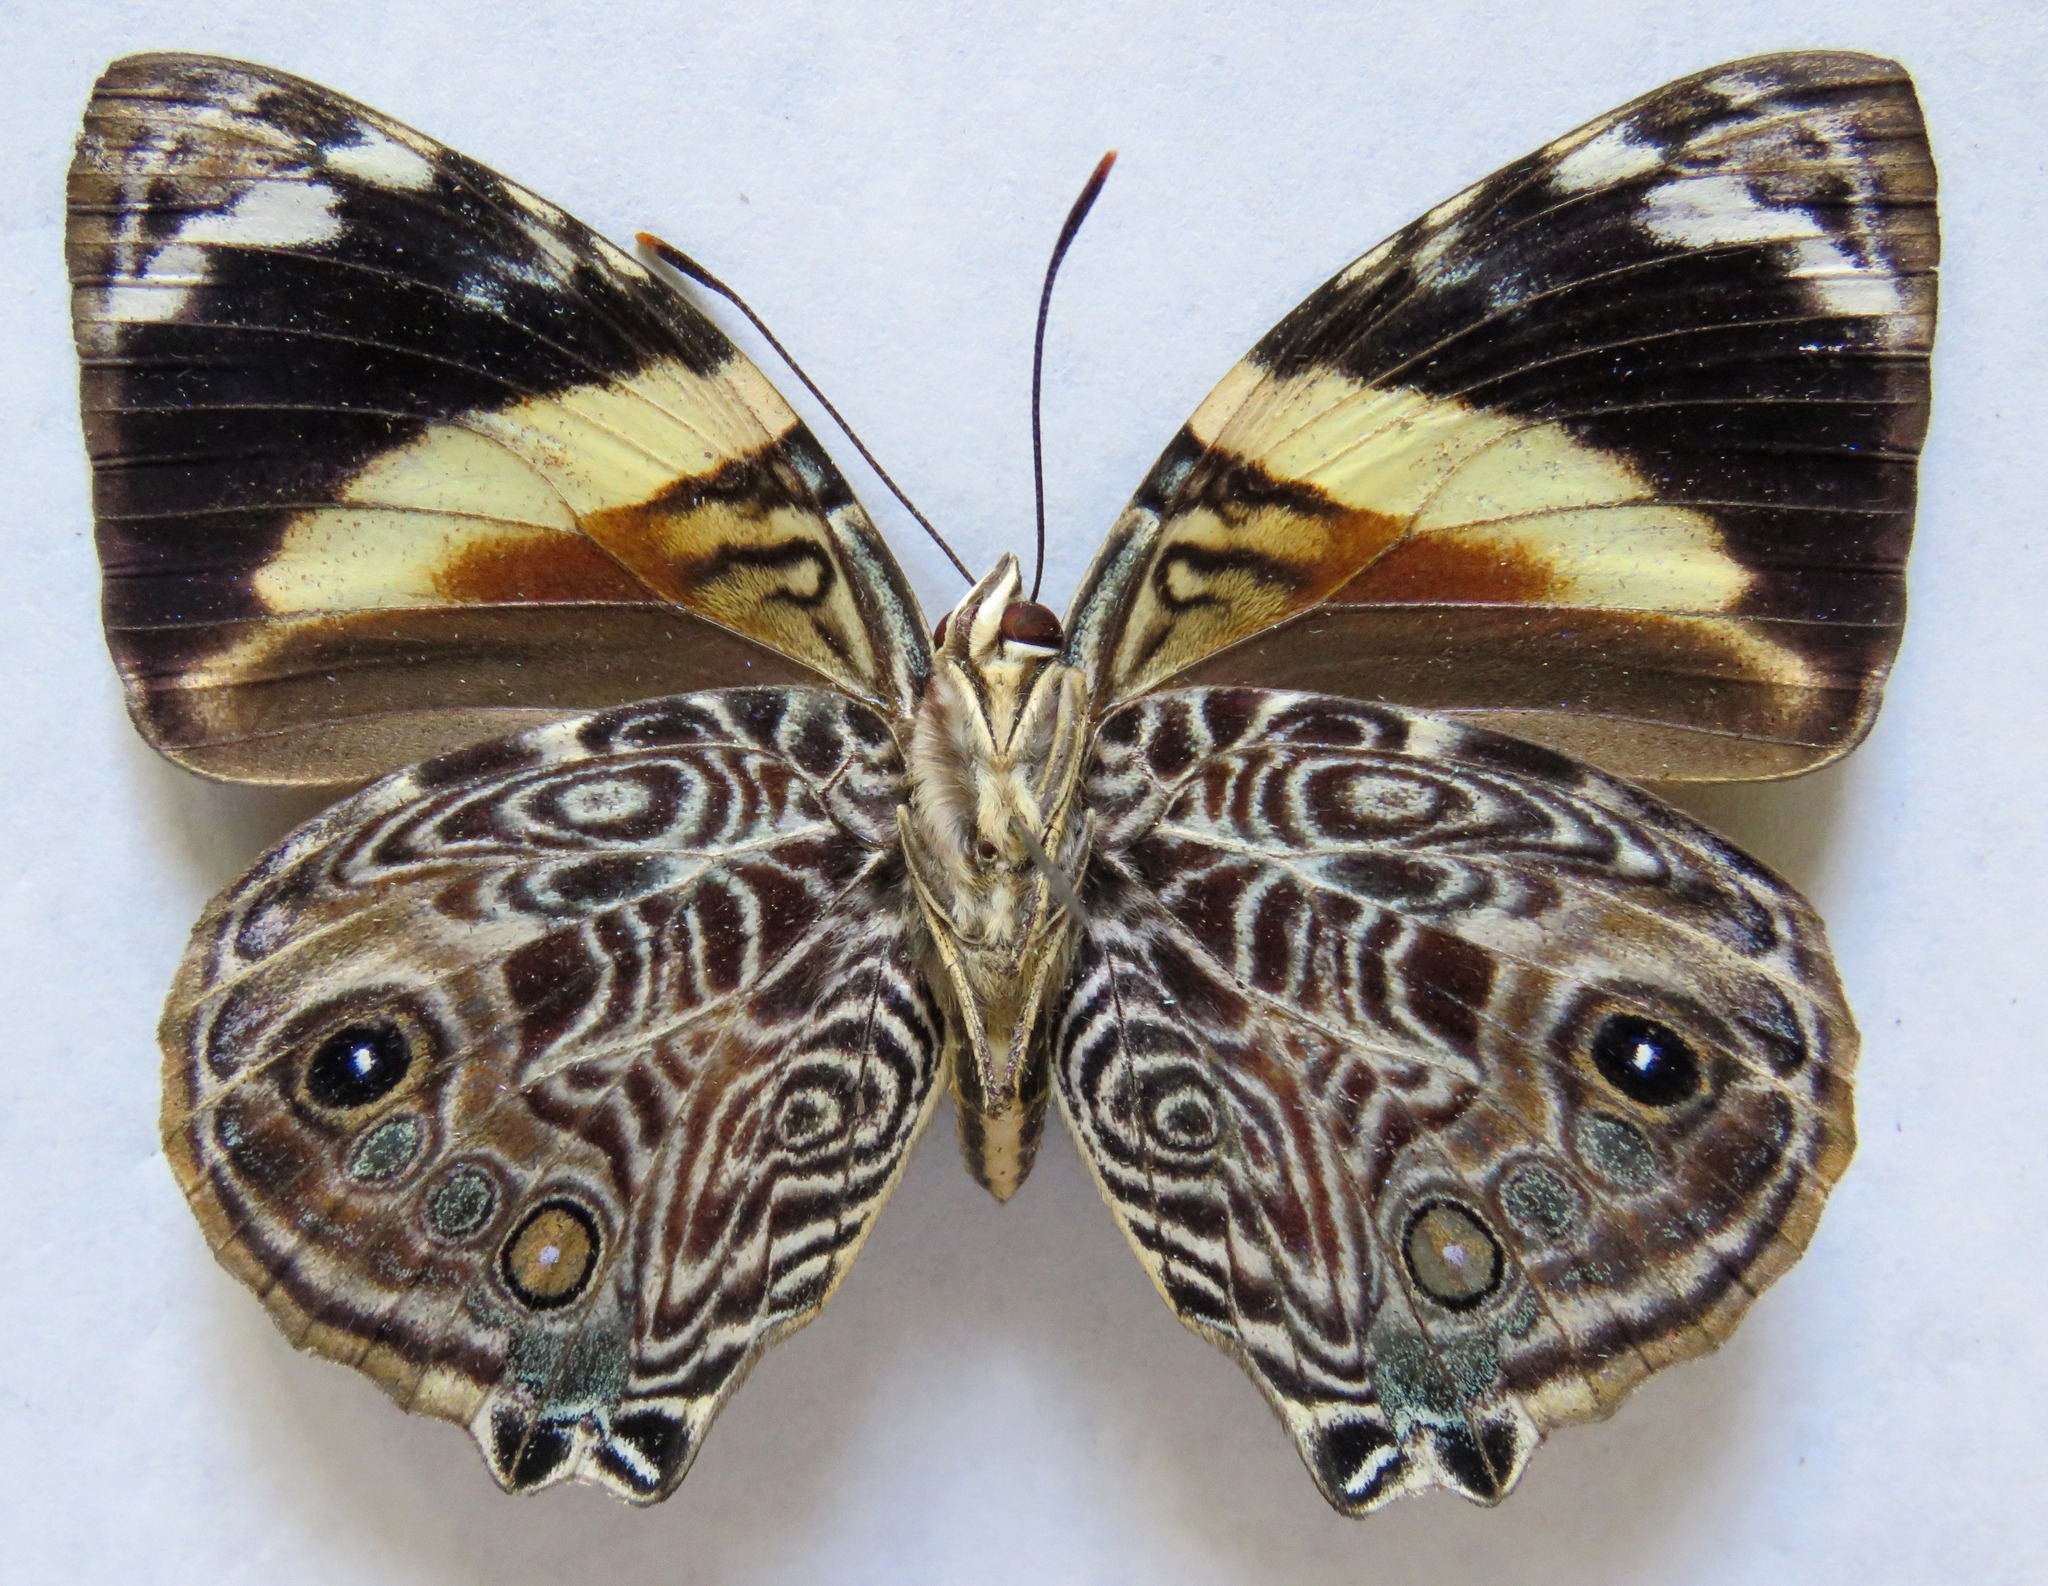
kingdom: Animalia
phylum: Arthropoda
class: Insecta
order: Lepidoptera
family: Nymphalidae
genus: Smyrna
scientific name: Smyrna blomfildia
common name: Blomfild's beauty
